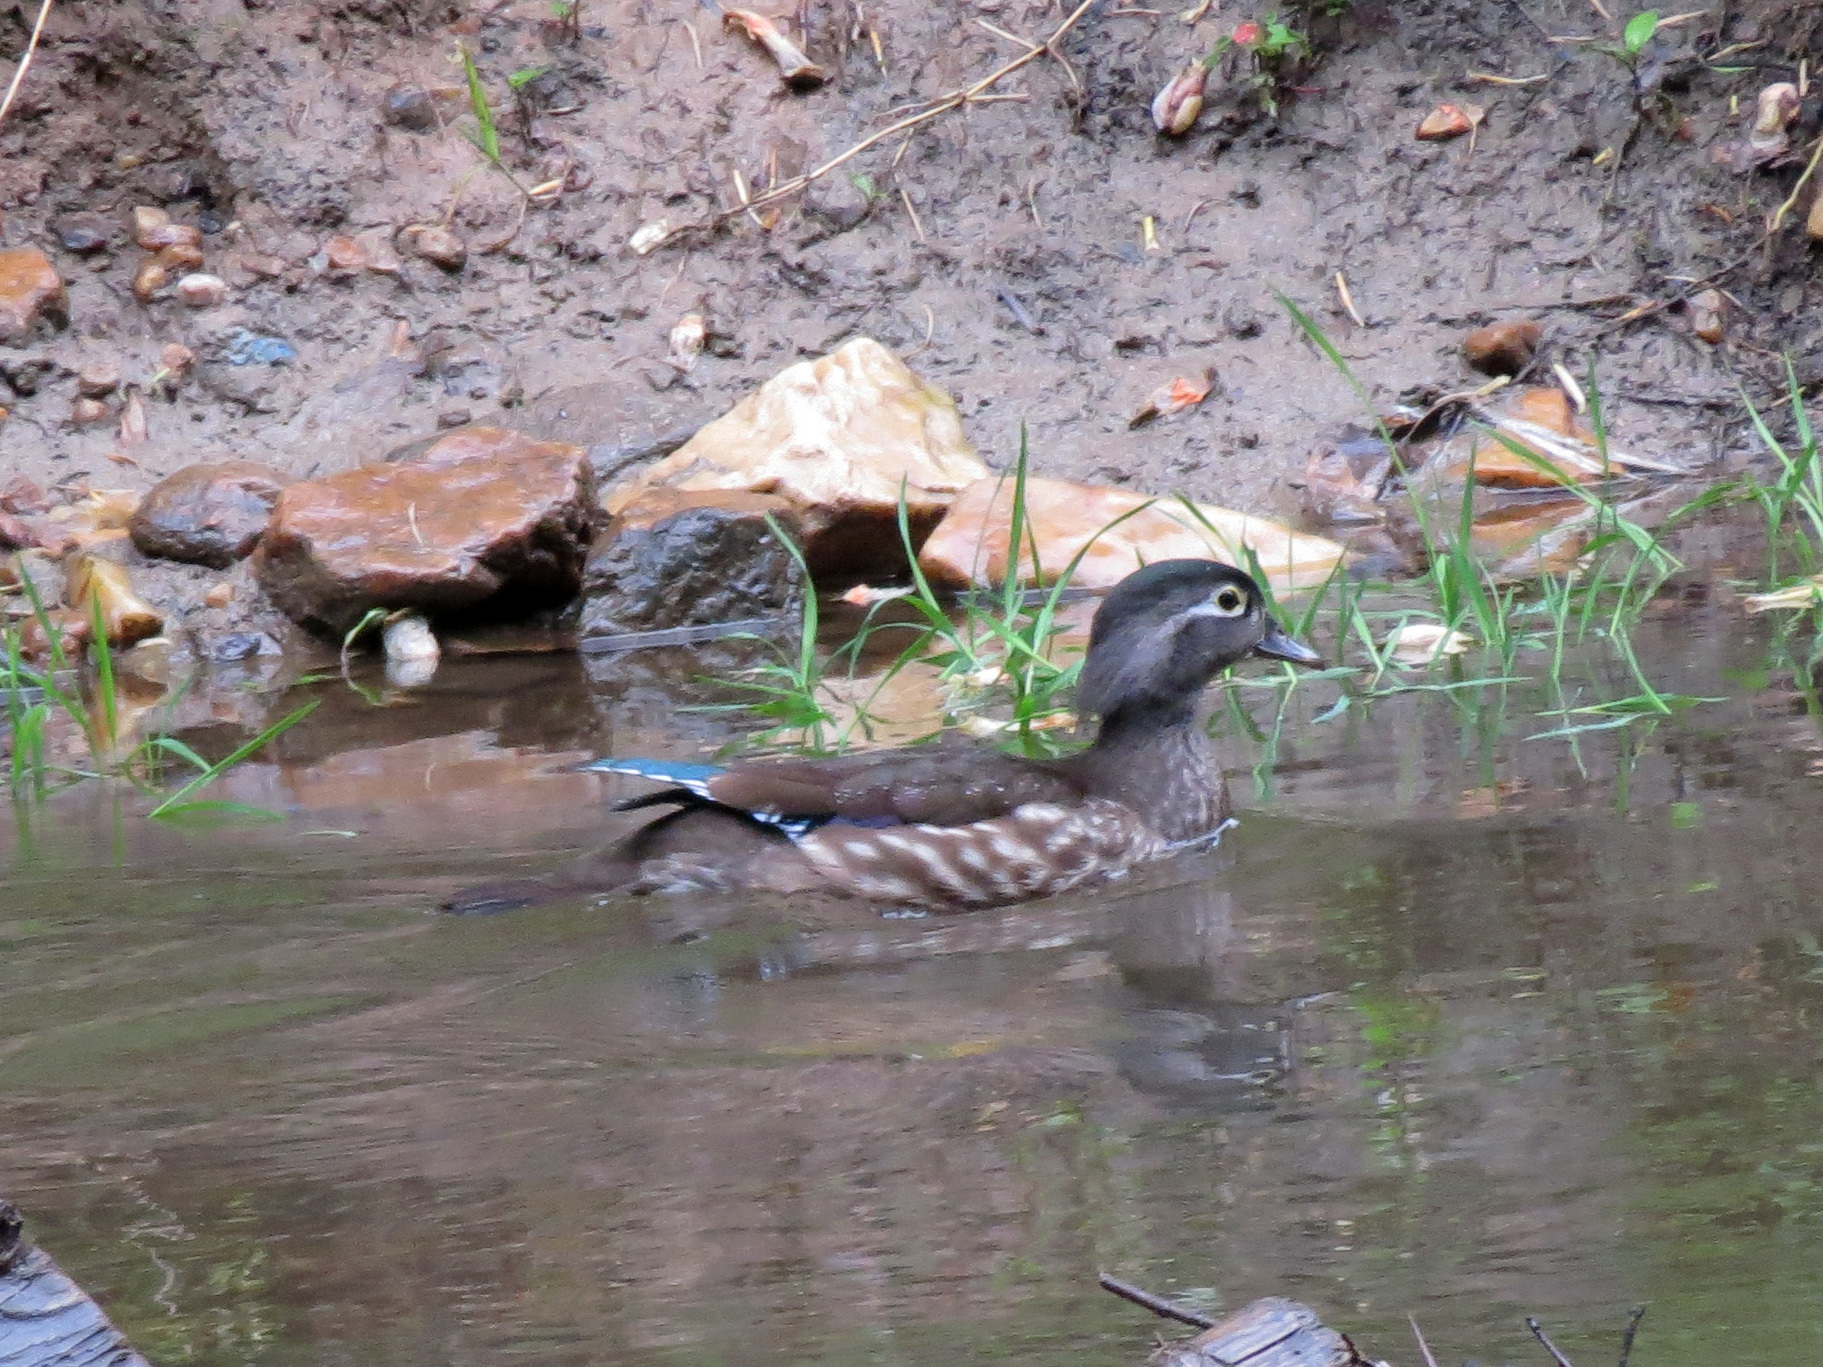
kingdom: Animalia
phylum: Chordata
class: Aves
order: Anseriformes
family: Anatidae
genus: Aix
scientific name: Aix sponsa
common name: Wood duck
